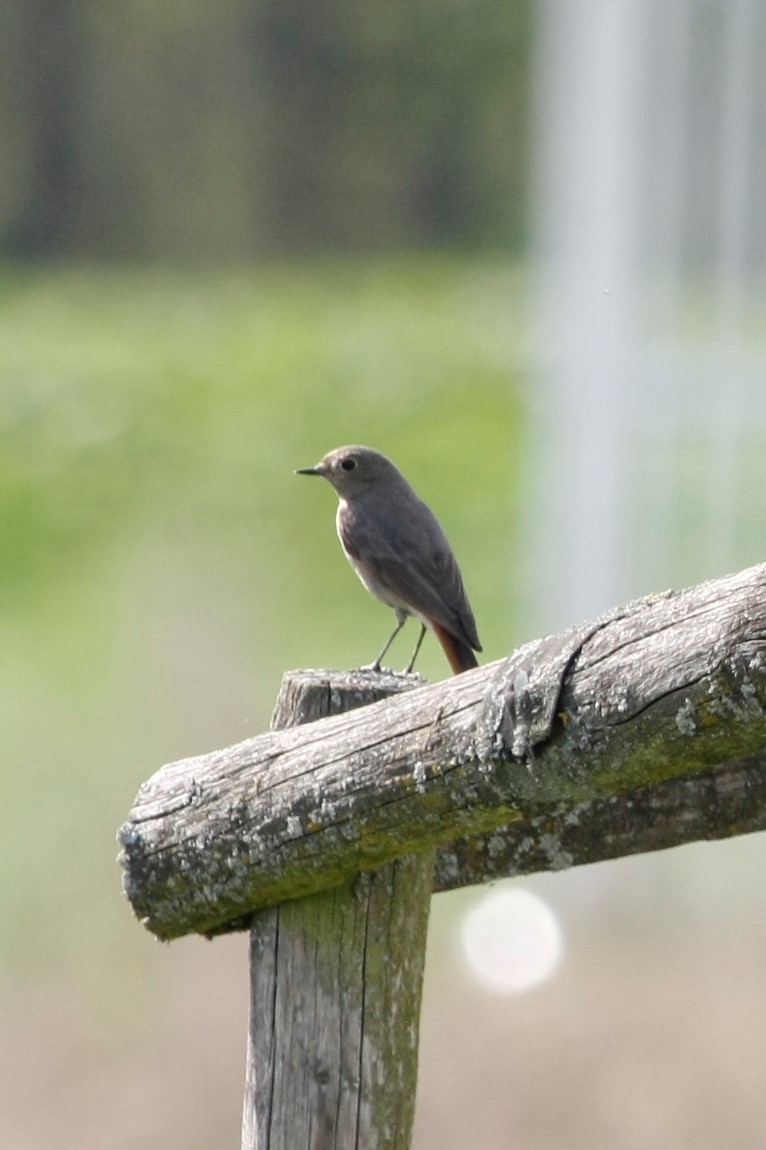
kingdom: Animalia
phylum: Chordata
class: Aves
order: Passeriformes
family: Muscicapidae
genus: Phoenicurus
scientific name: Phoenicurus ochruros
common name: Black redstart
